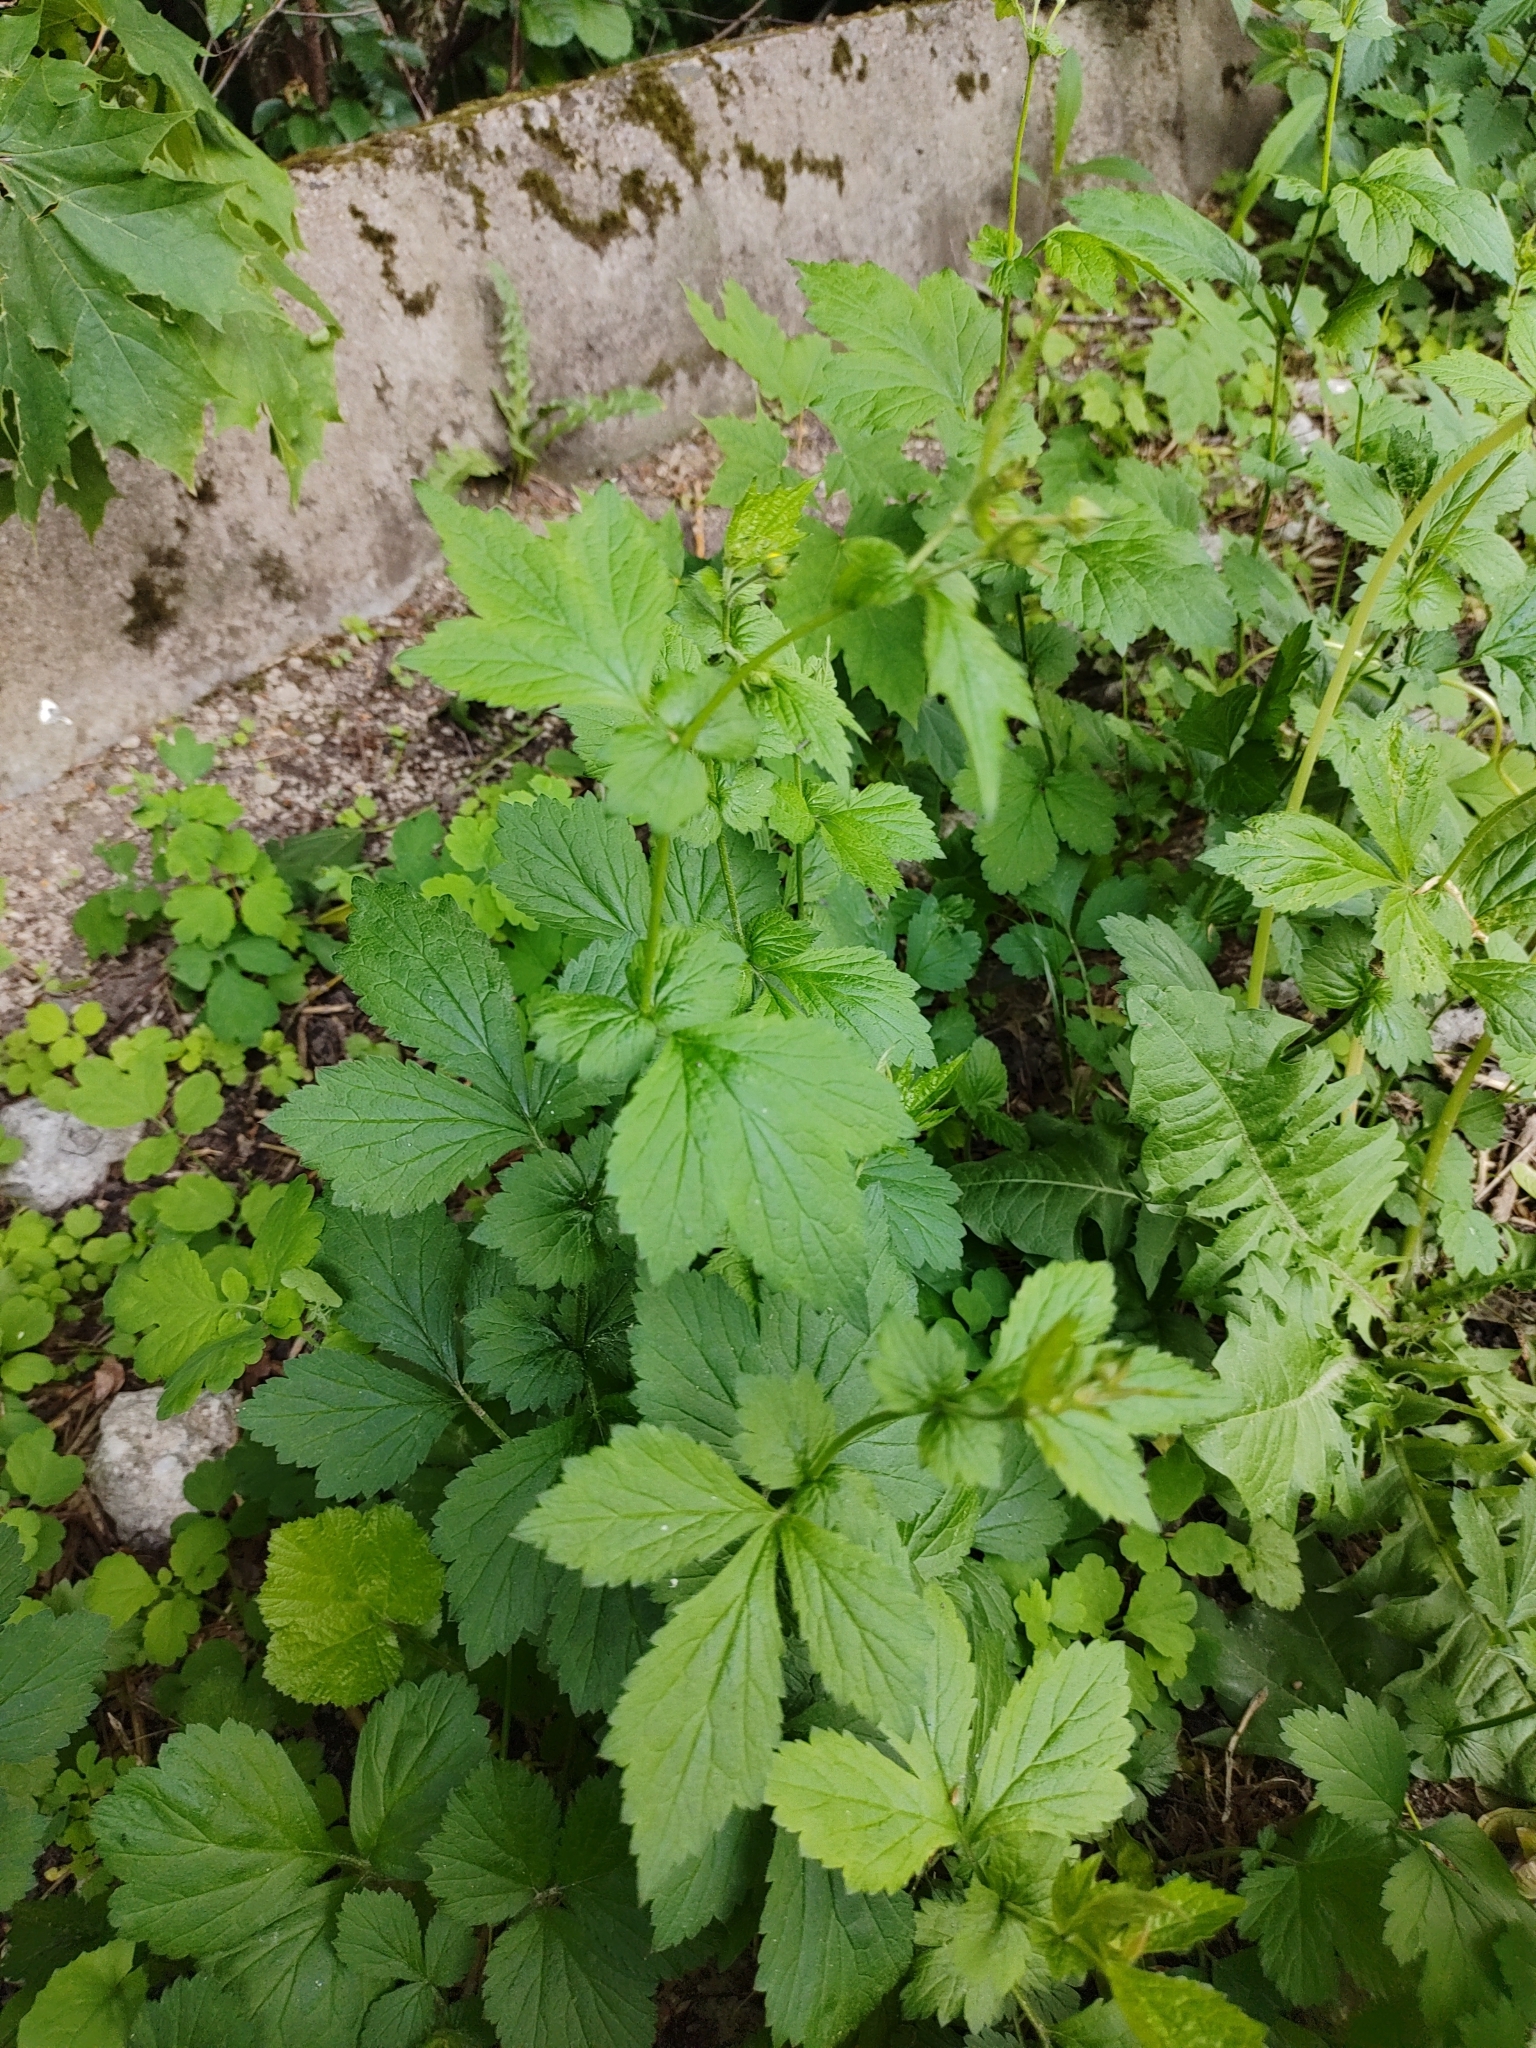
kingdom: Plantae
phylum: Tracheophyta
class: Magnoliopsida
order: Rosales
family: Rosaceae
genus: Geum
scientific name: Geum urbanum
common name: Wood avens
